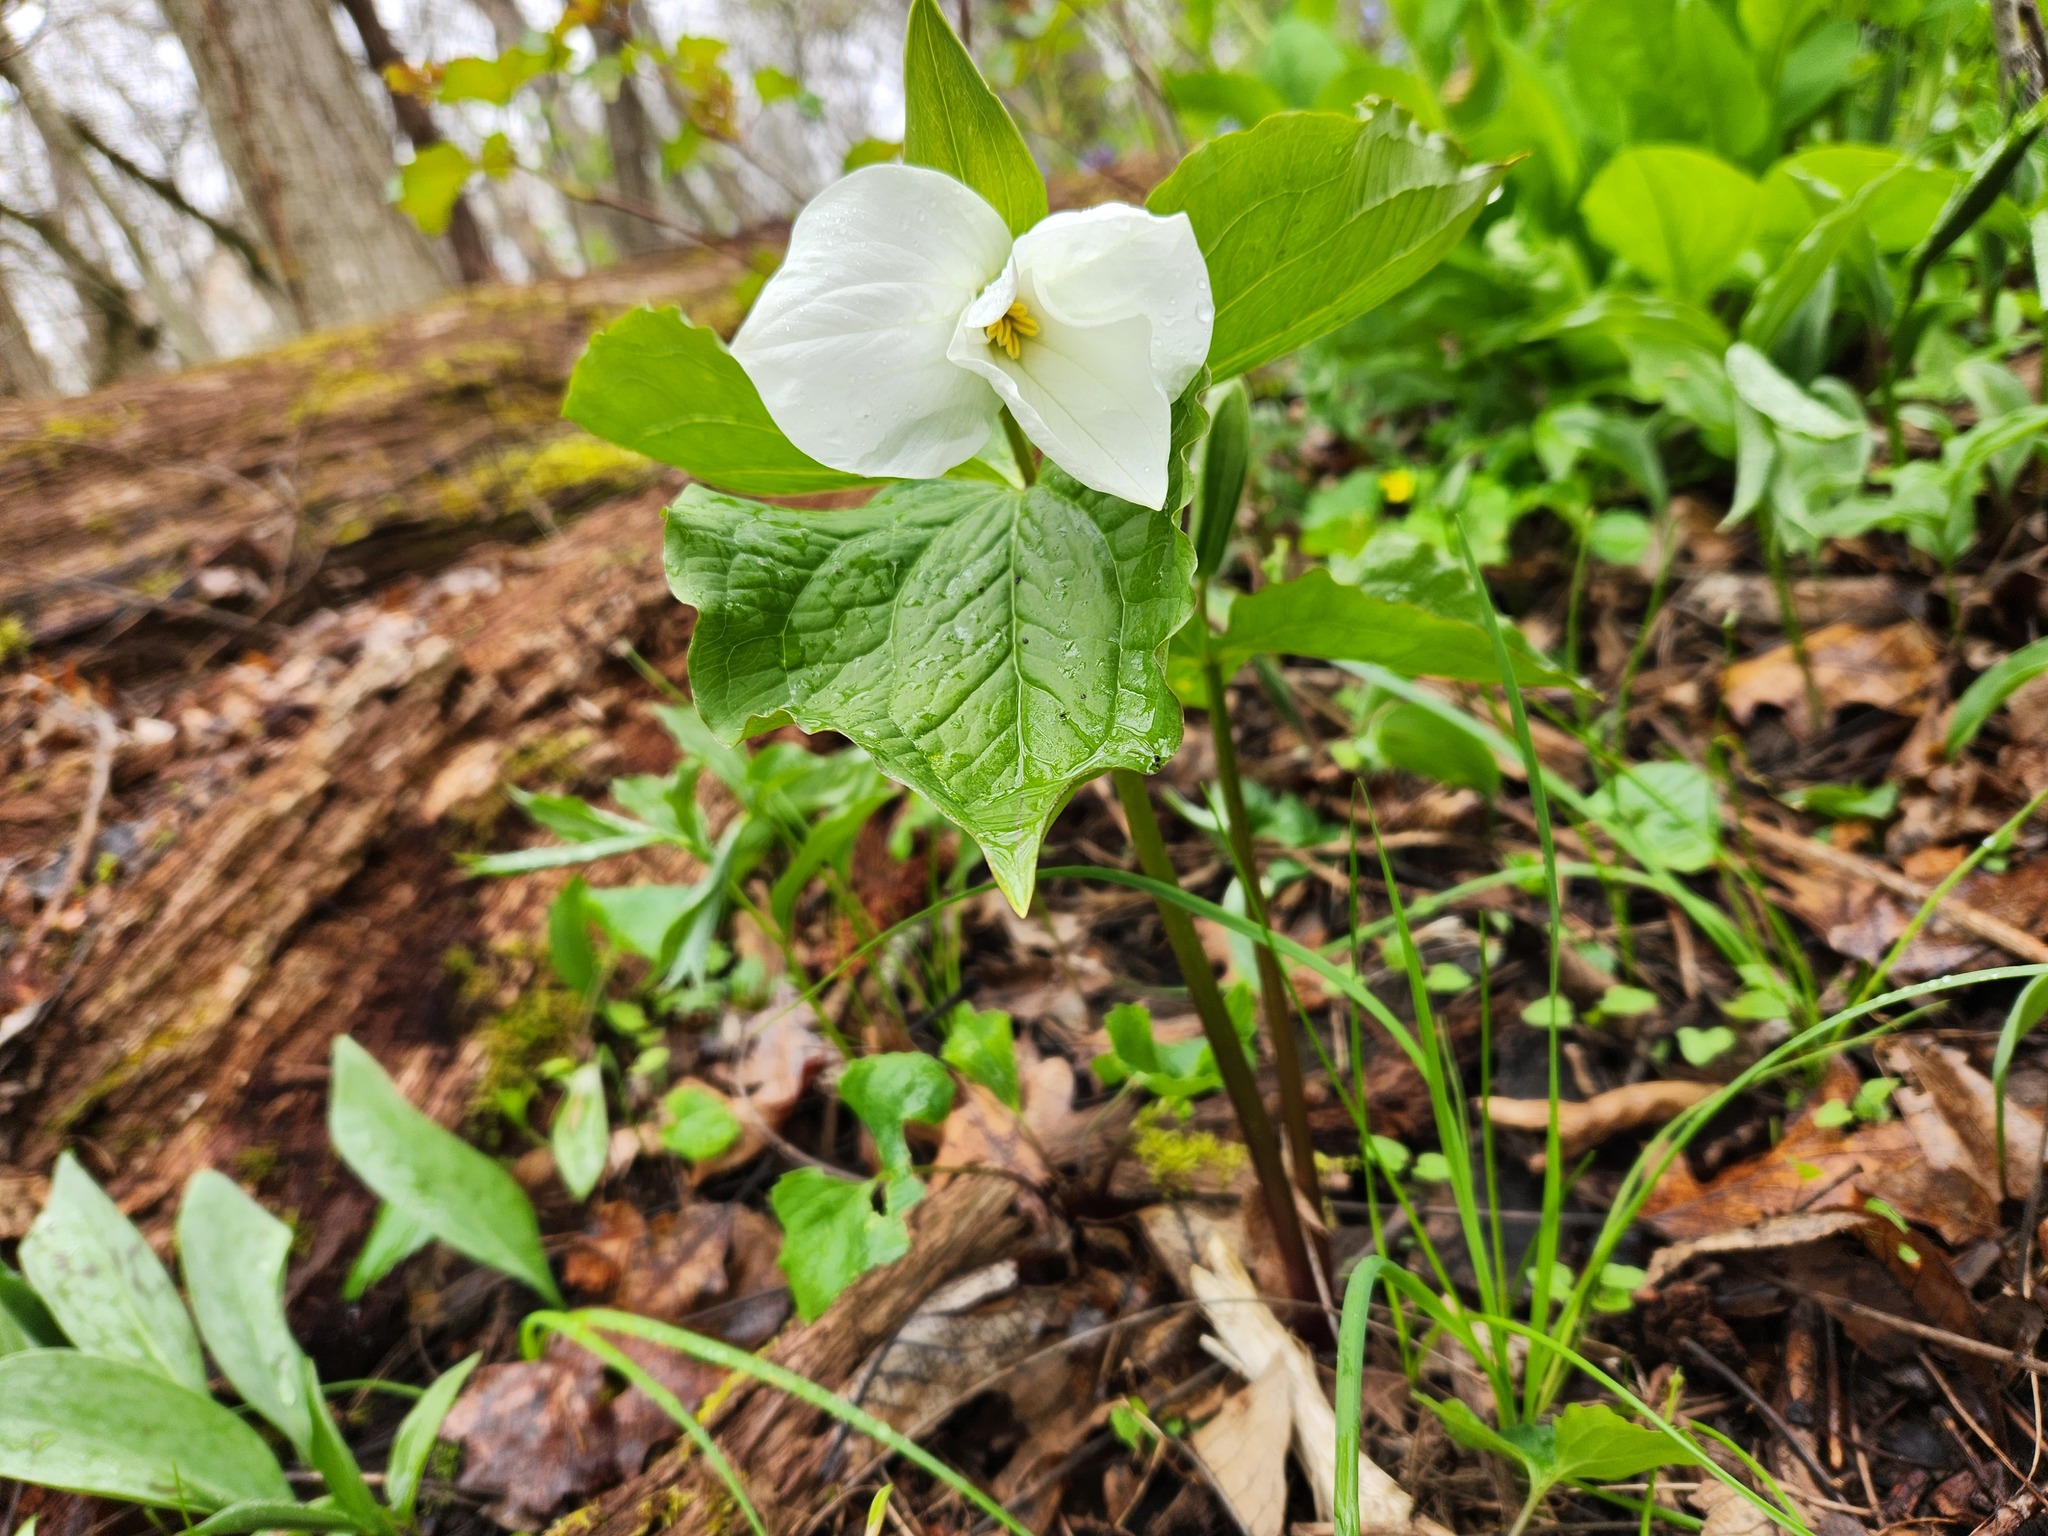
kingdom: Plantae
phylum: Tracheophyta
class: Liliopsida
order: Liliales
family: Melanthiaceae
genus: Trillium
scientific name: Trillium grandiflorum
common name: Great white trillium
